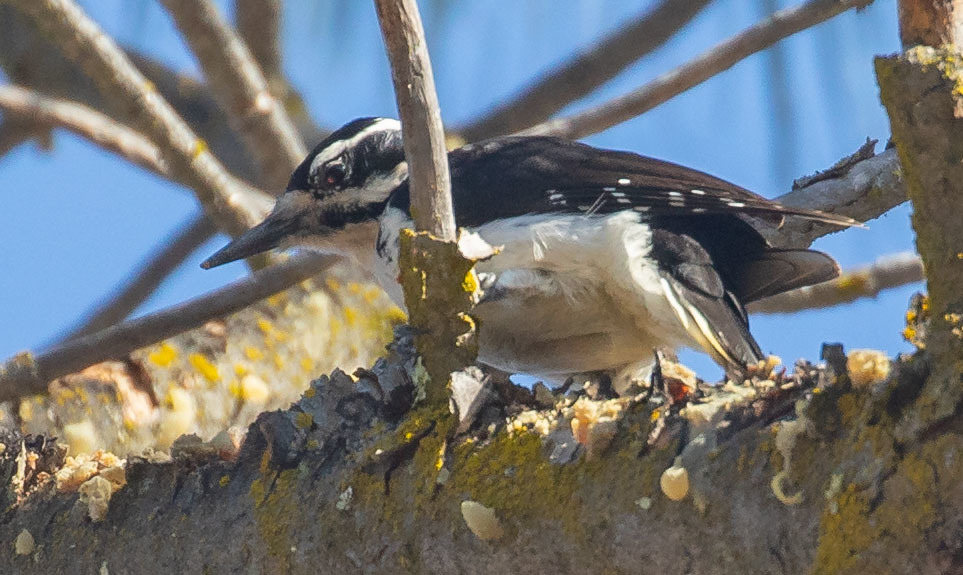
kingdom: Animalia
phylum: Chordata
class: Aves
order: Piciformes
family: Picidae
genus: Leuconotopicus
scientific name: Leuconotopicus villosus
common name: Hairy woodpecker
